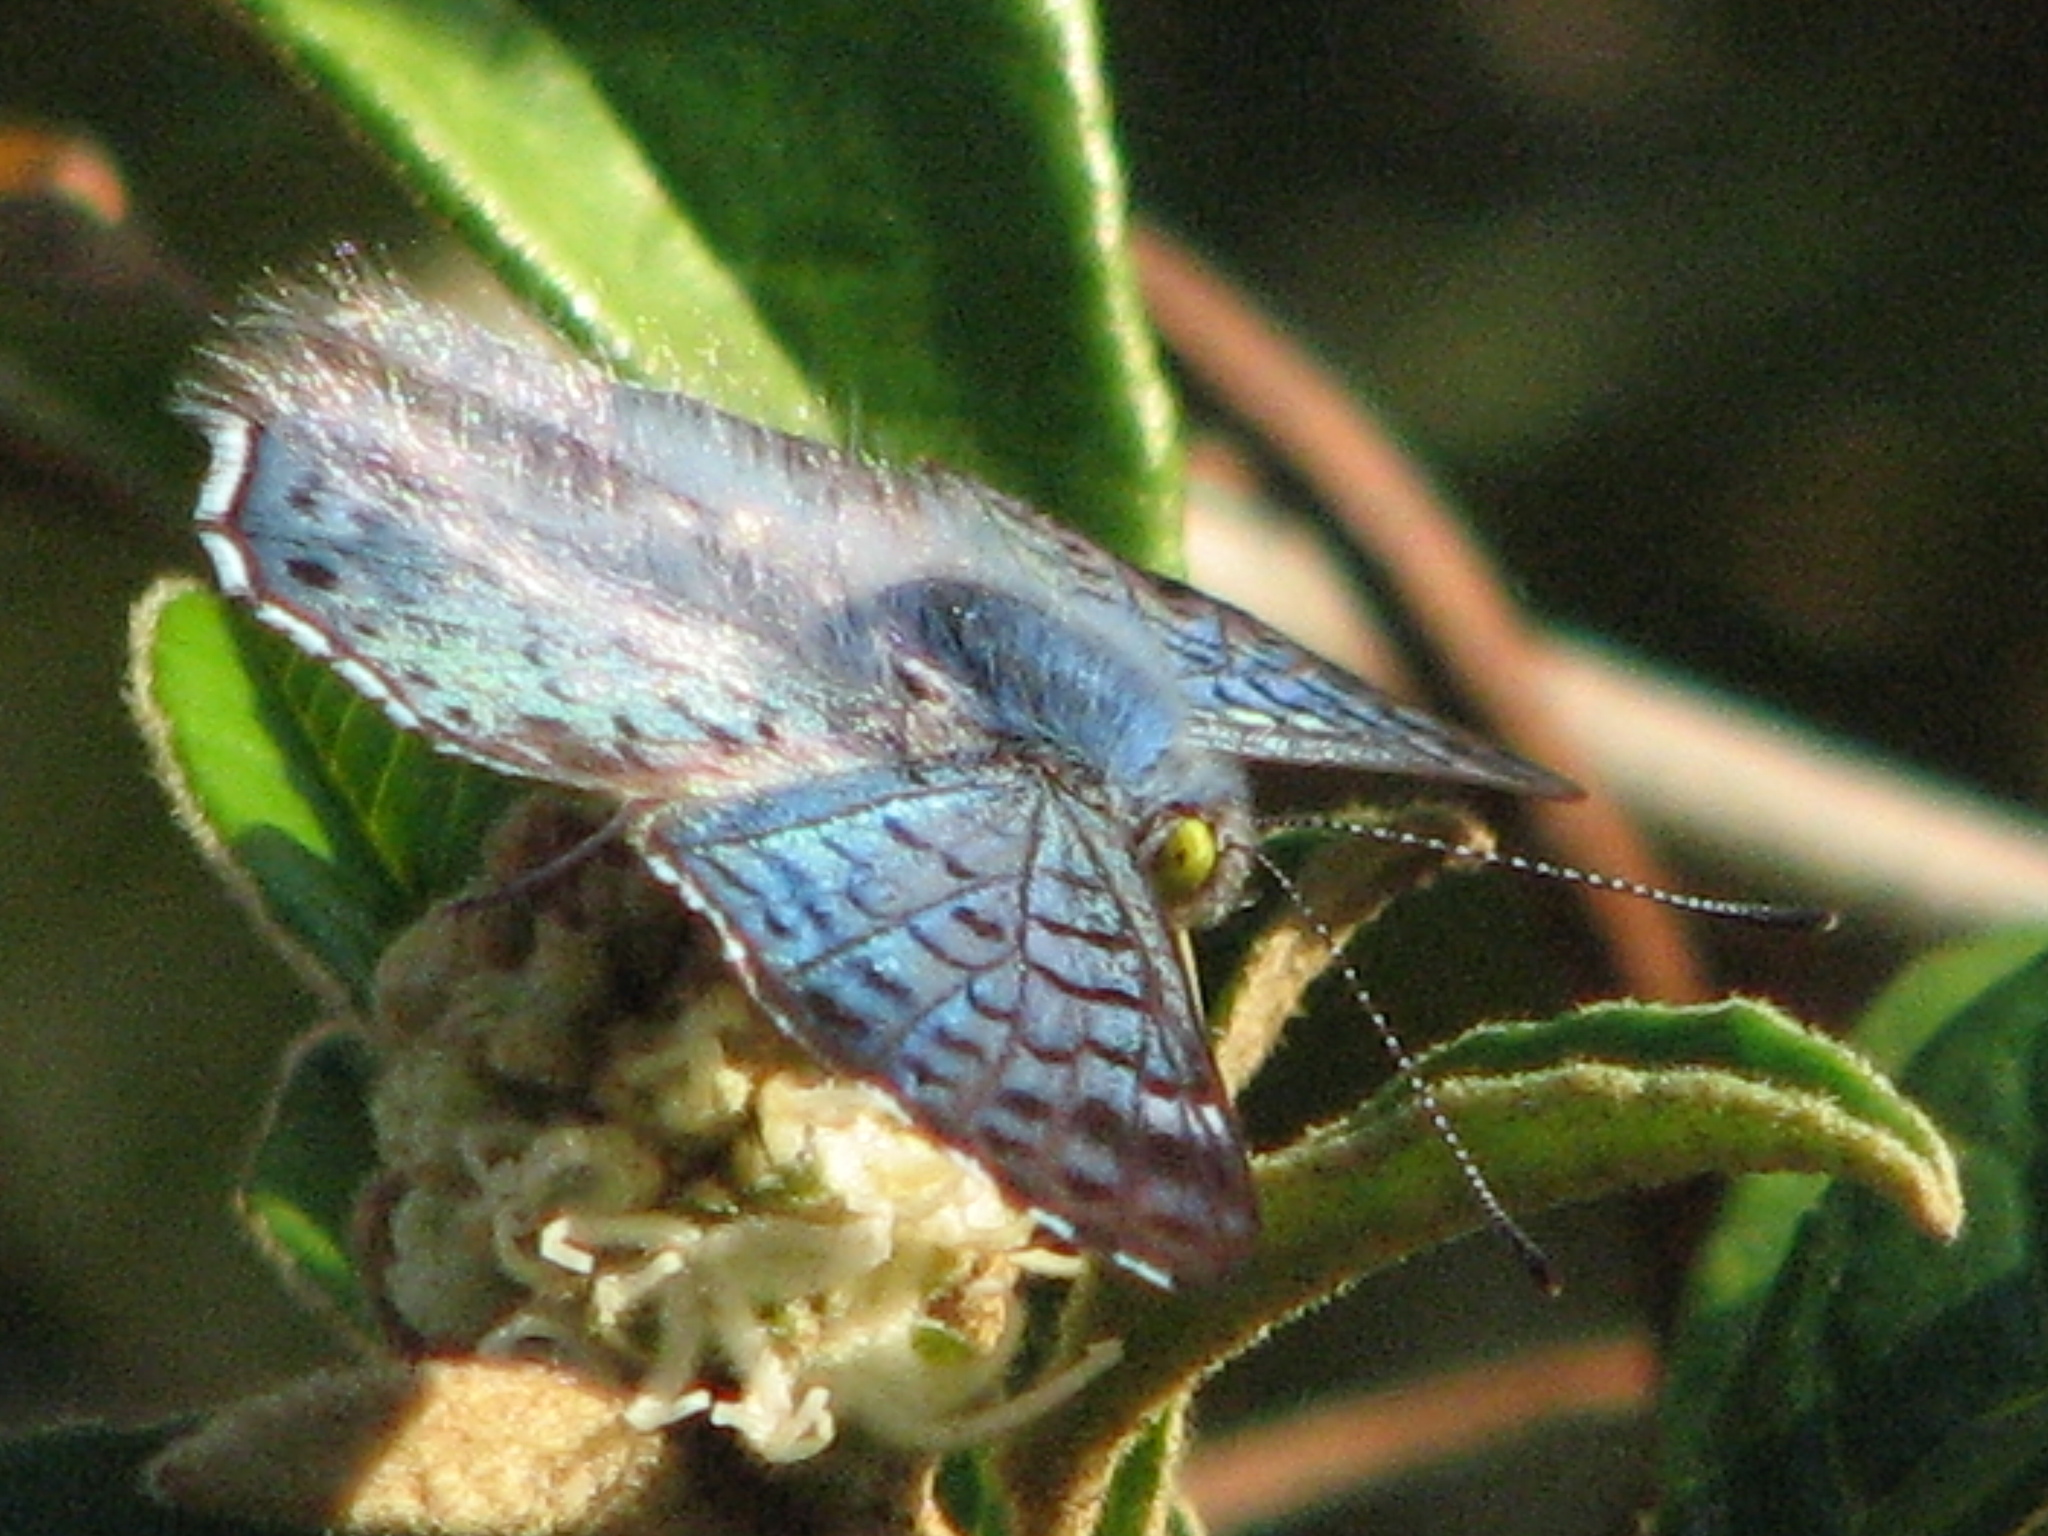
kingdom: Animalia
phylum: Arthropoda
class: Insecta
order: Lepidoptera
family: Riodinidae
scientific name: Riodinidae
